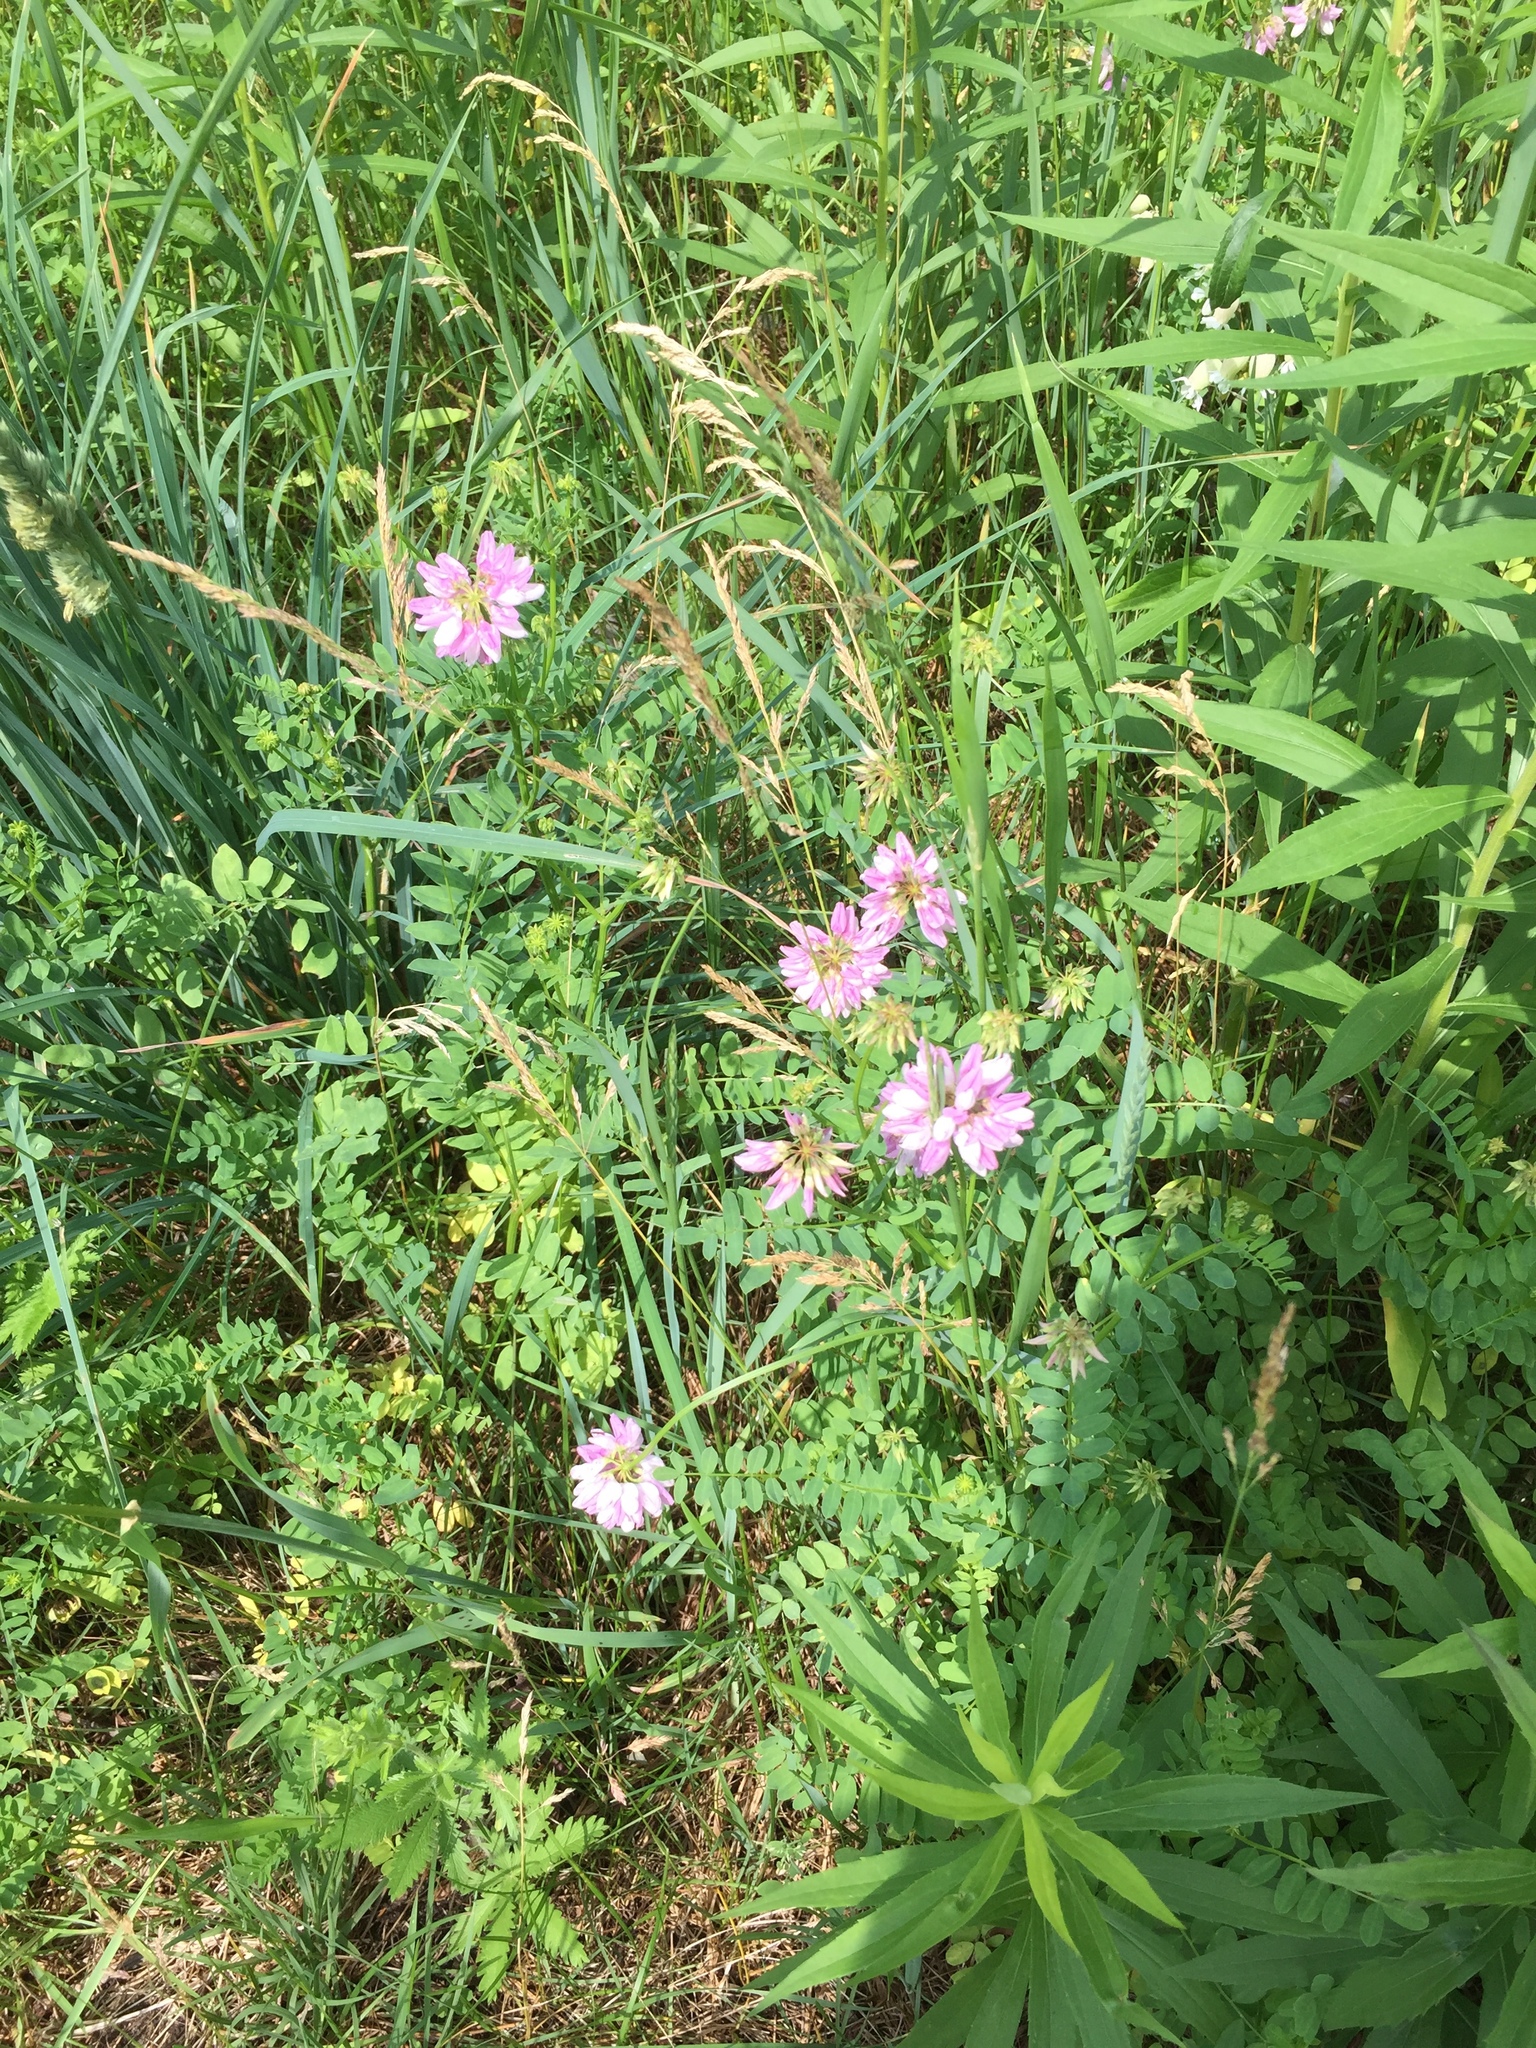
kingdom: Plantae
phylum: Tracheophyta
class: Magnoliopsida
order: Fabales
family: Fabaceae
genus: Coronilla
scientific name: Coronilla varia
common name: Crownvetch
